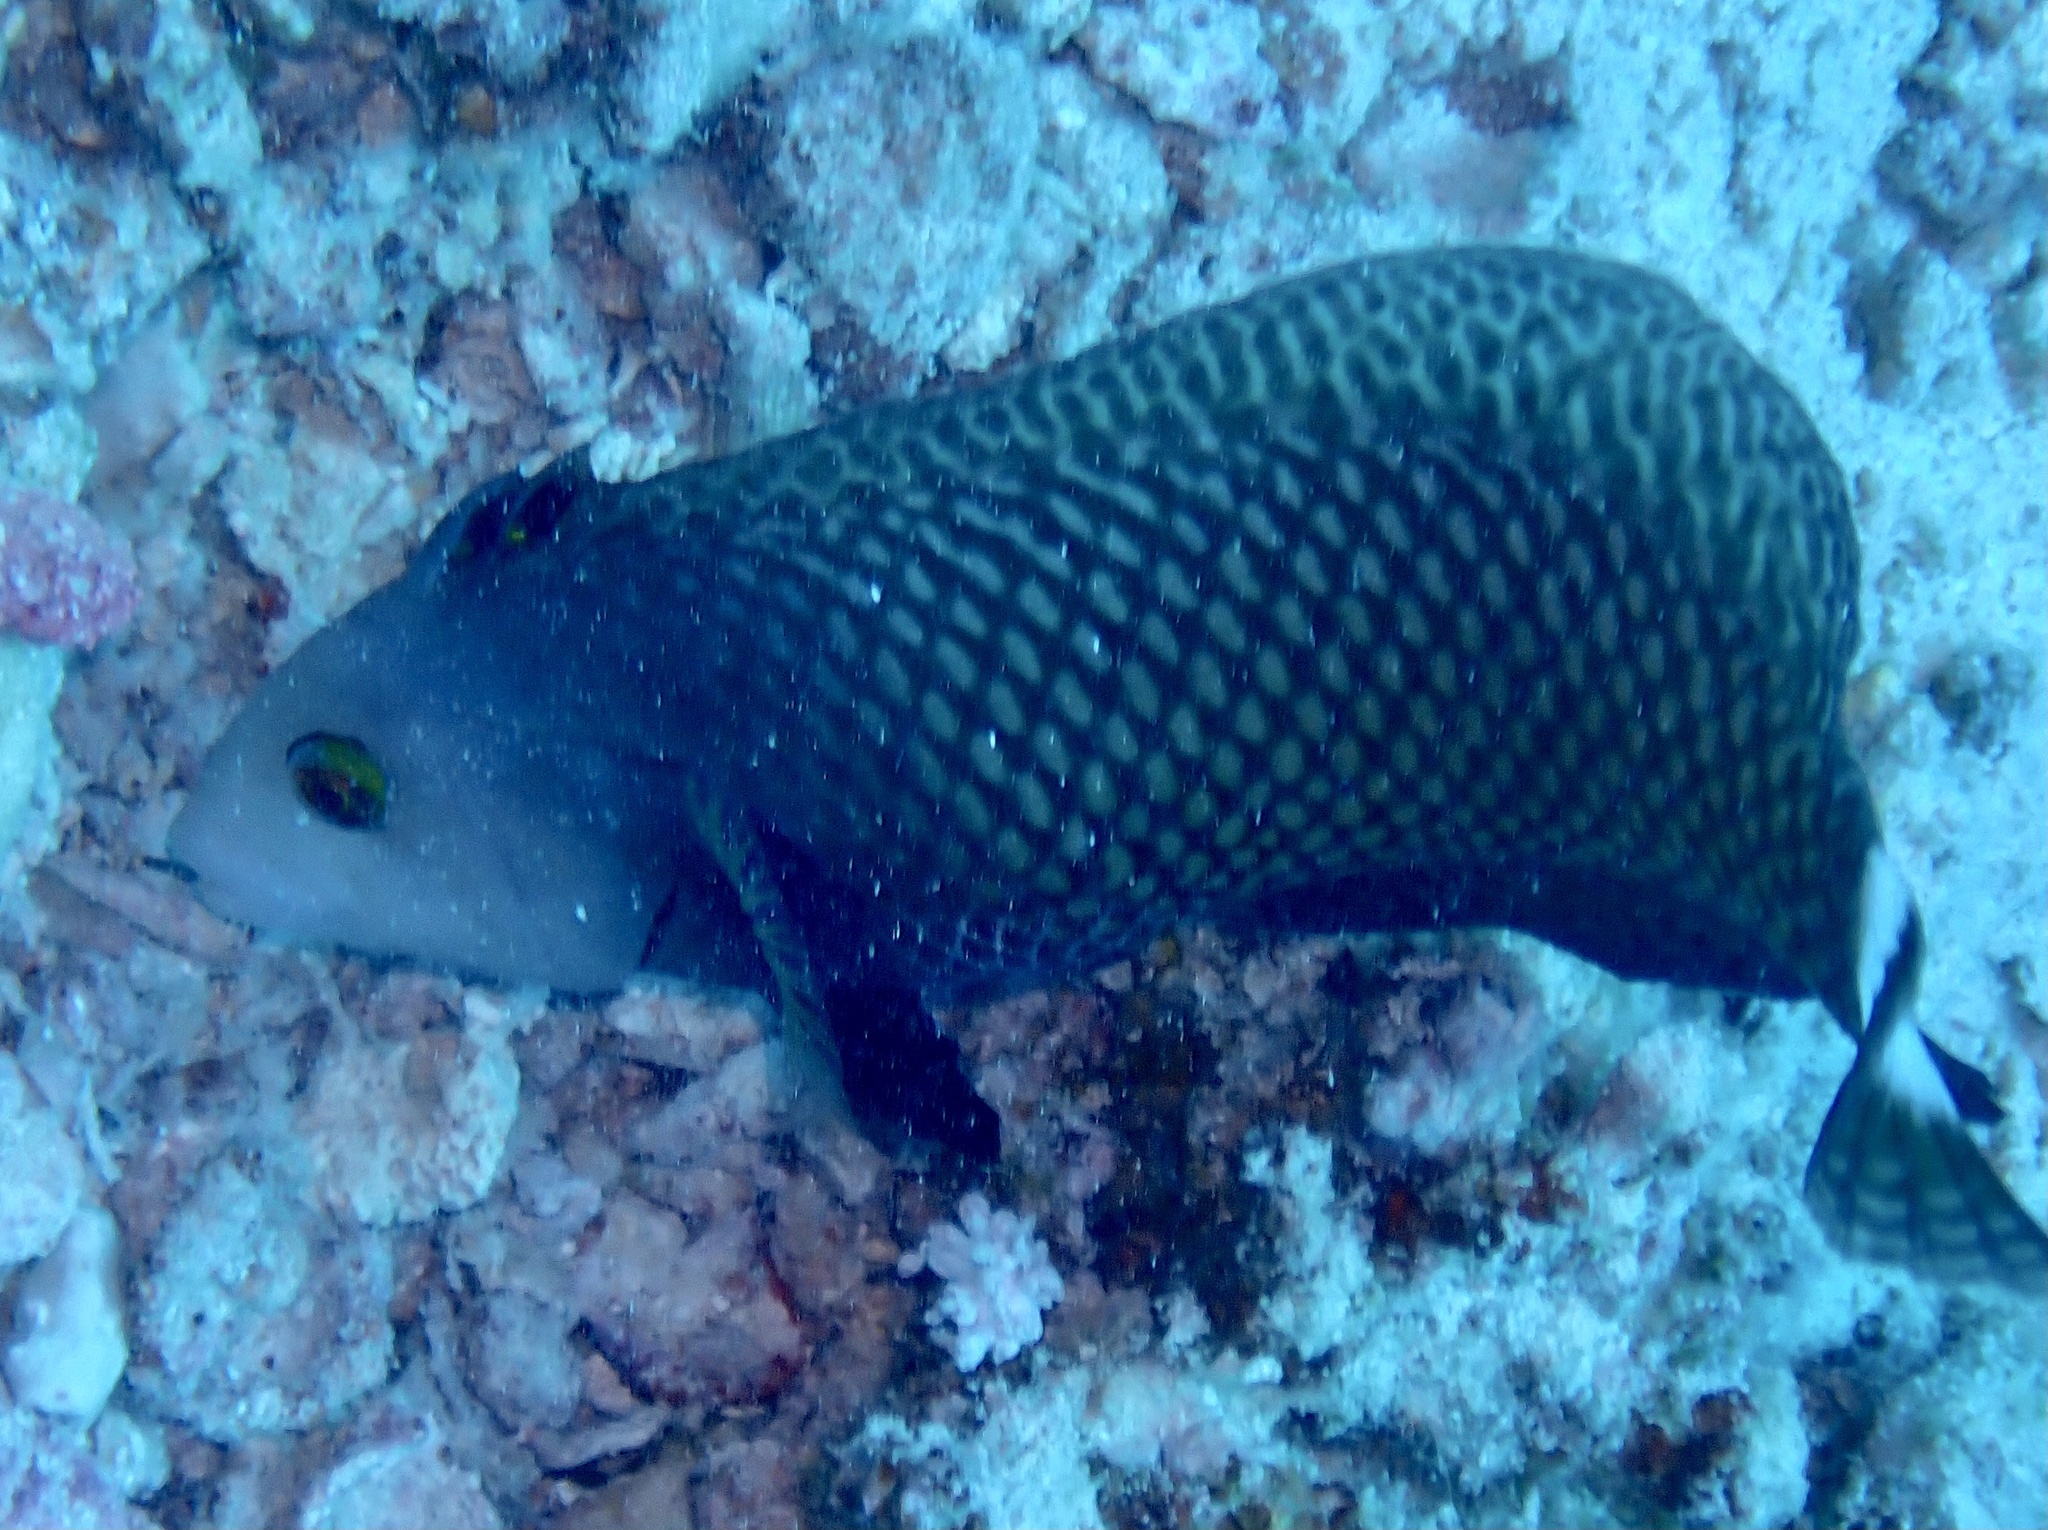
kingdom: Animalia
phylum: Chordata
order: Perciformes
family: Labridae
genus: Novaculichthys
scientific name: Novaculichthys taeniourus
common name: Rockmover wrasse
